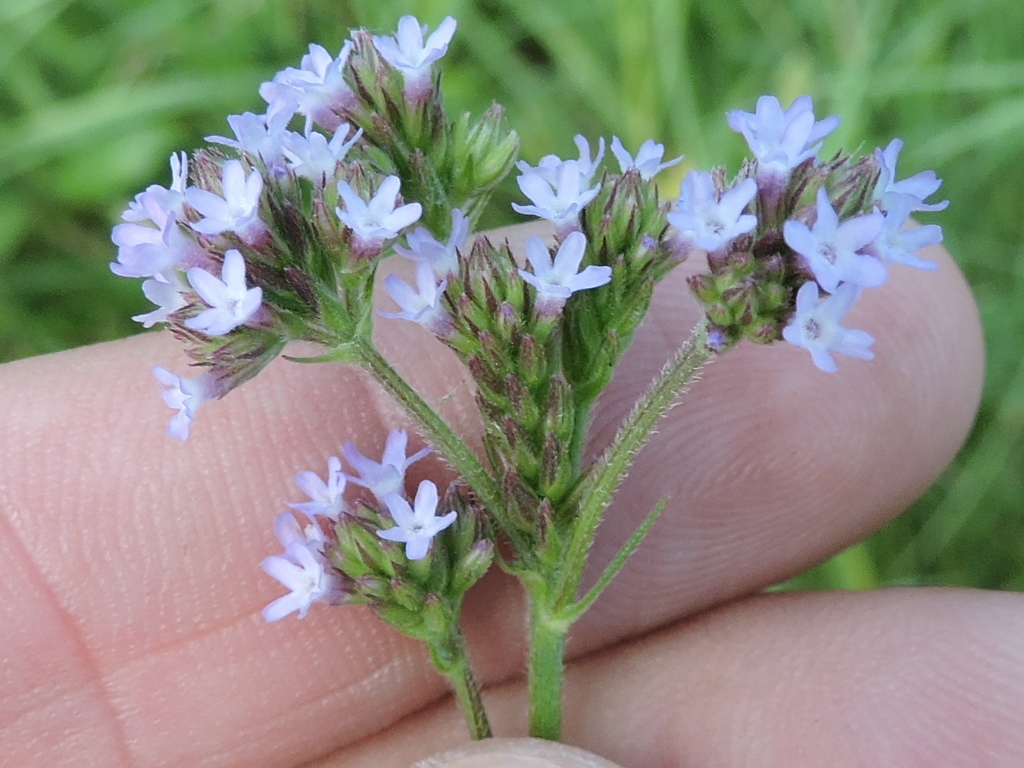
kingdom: Plantae
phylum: Tracheophyta
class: Magnoliopsida
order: Lamiales
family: Verbenaceae
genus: Verbena
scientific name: Verbena brasiliensis
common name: Brazilian vervain
